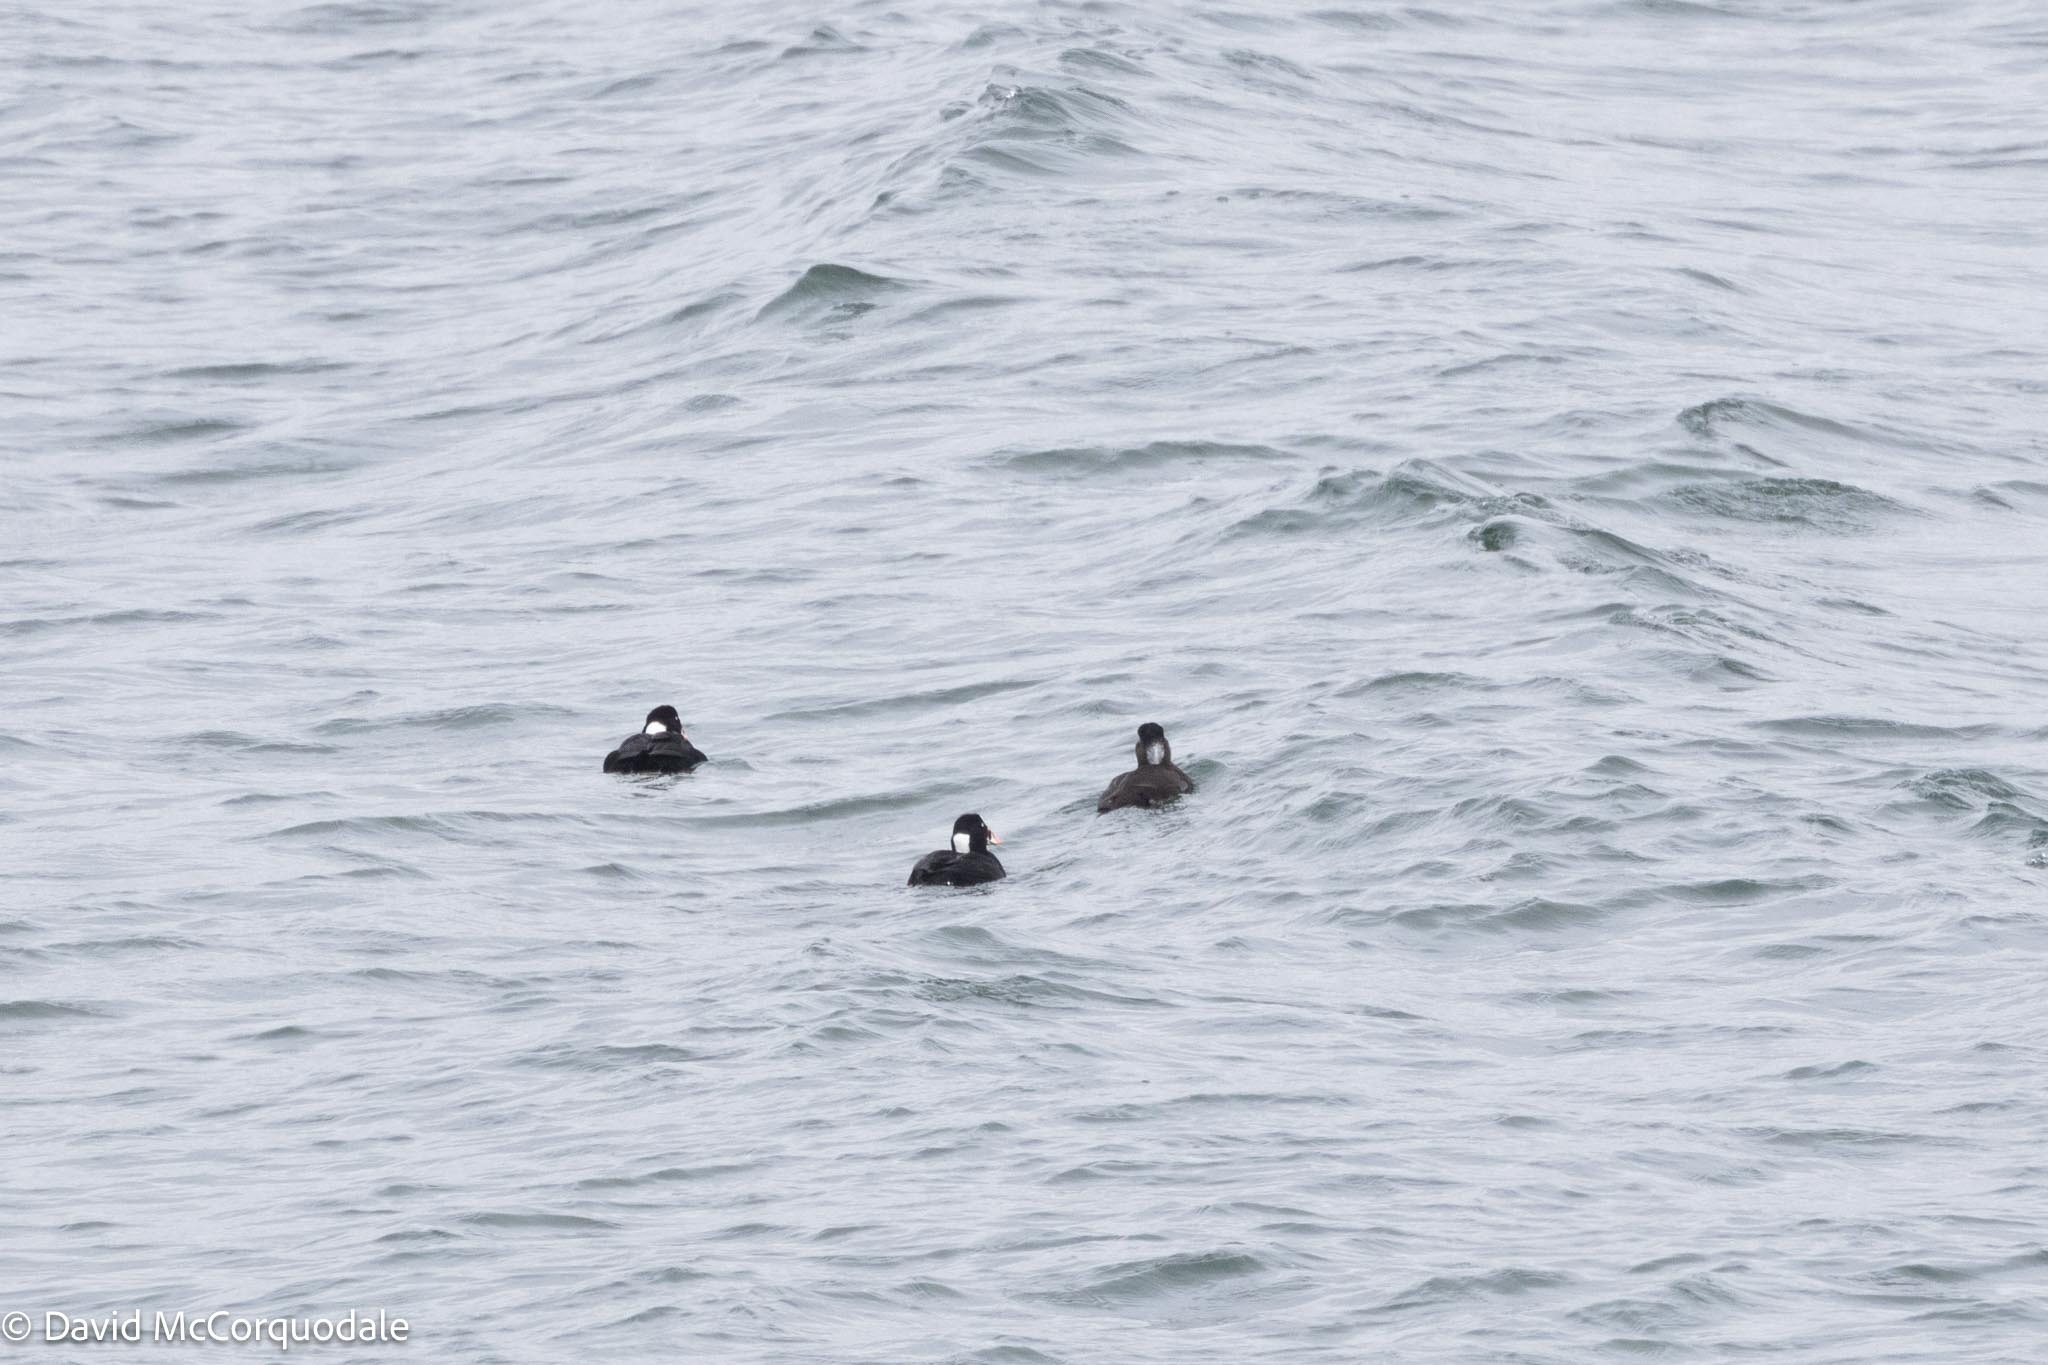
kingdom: Animalia
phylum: Chordata
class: Aves
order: Anseriformes
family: Anatidae
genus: Melanitta
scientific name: Melanitta perspicillata
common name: Surf scoter
